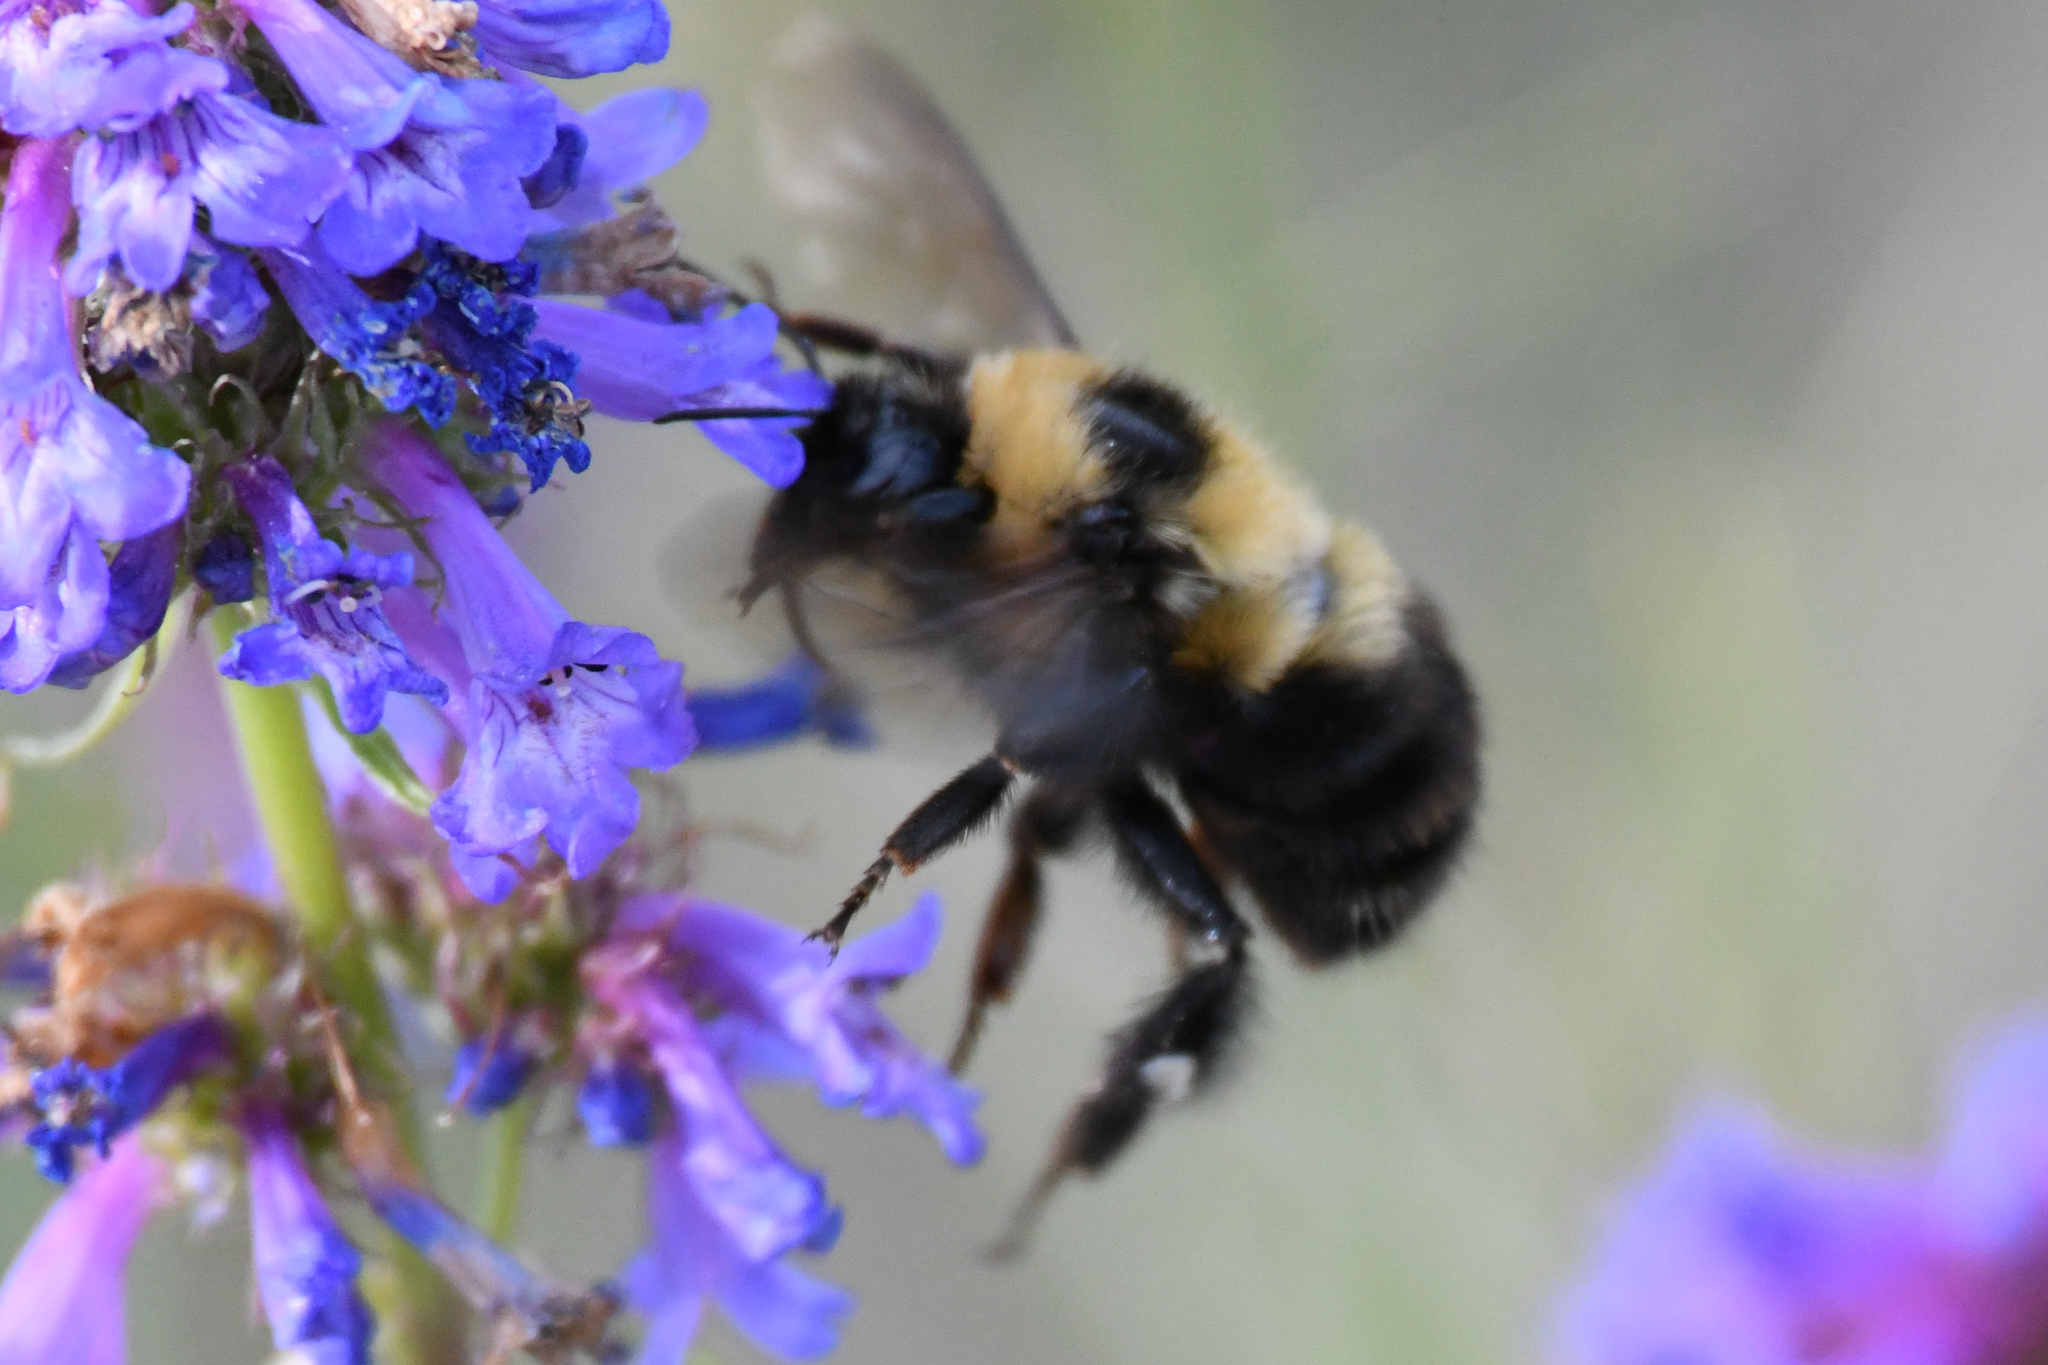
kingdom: Animalia
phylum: Arthropoda
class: Insecta
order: Hymenoptera
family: Apidae
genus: Bombus
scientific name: Bombus rufocinctus
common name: Red-belted bumble bee
